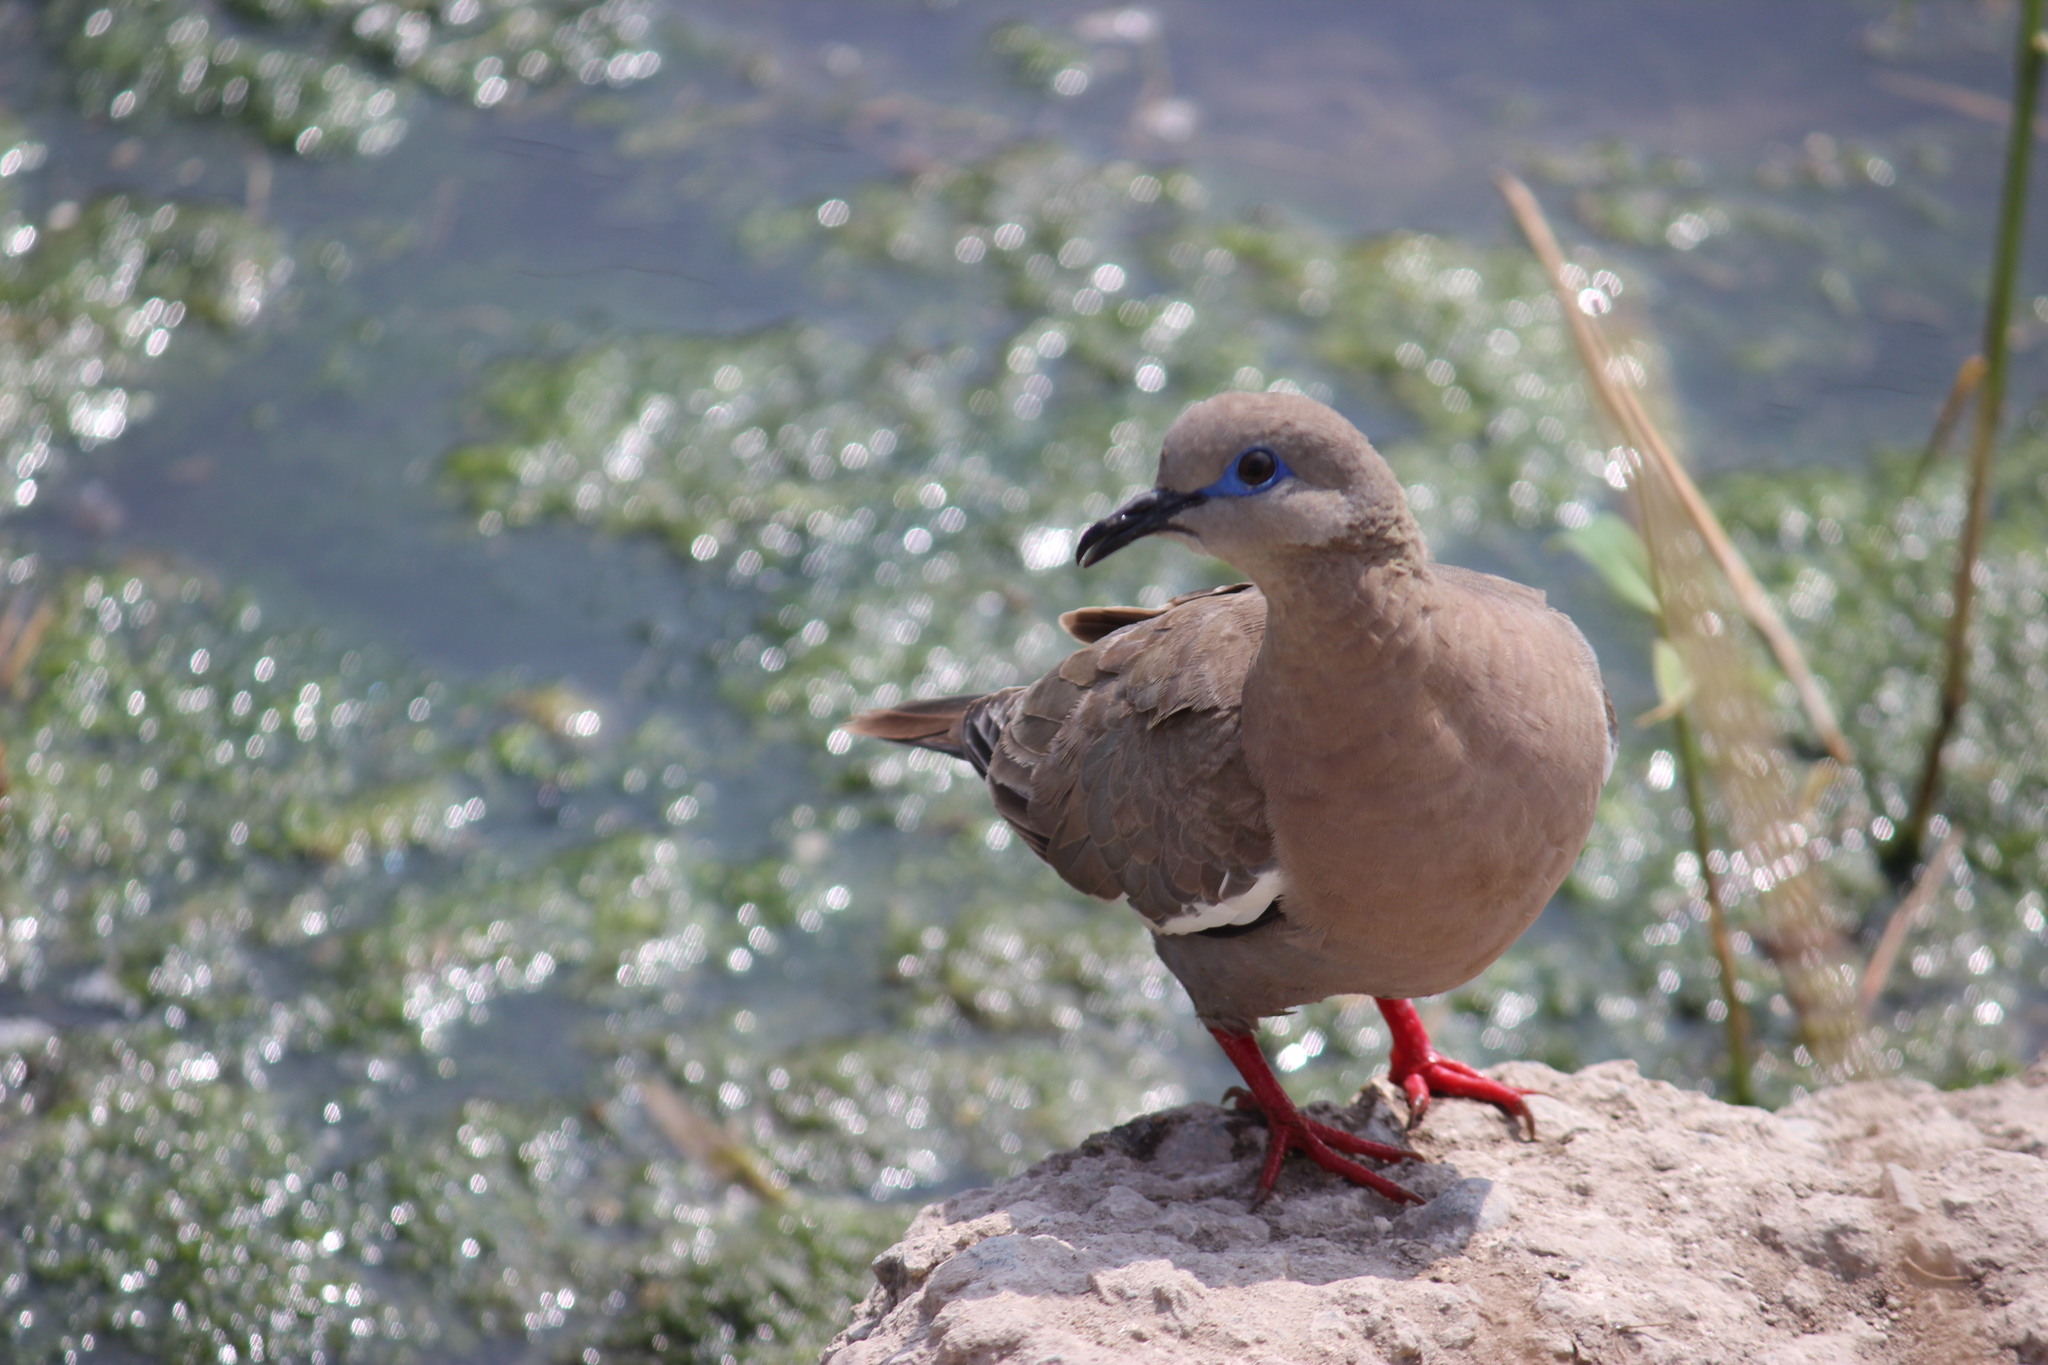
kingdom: Animalia
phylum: Chordata
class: Aves
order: Columbiformes
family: Columbidae
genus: Zenaida
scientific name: Zenaida meloda
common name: West peruvian dove
